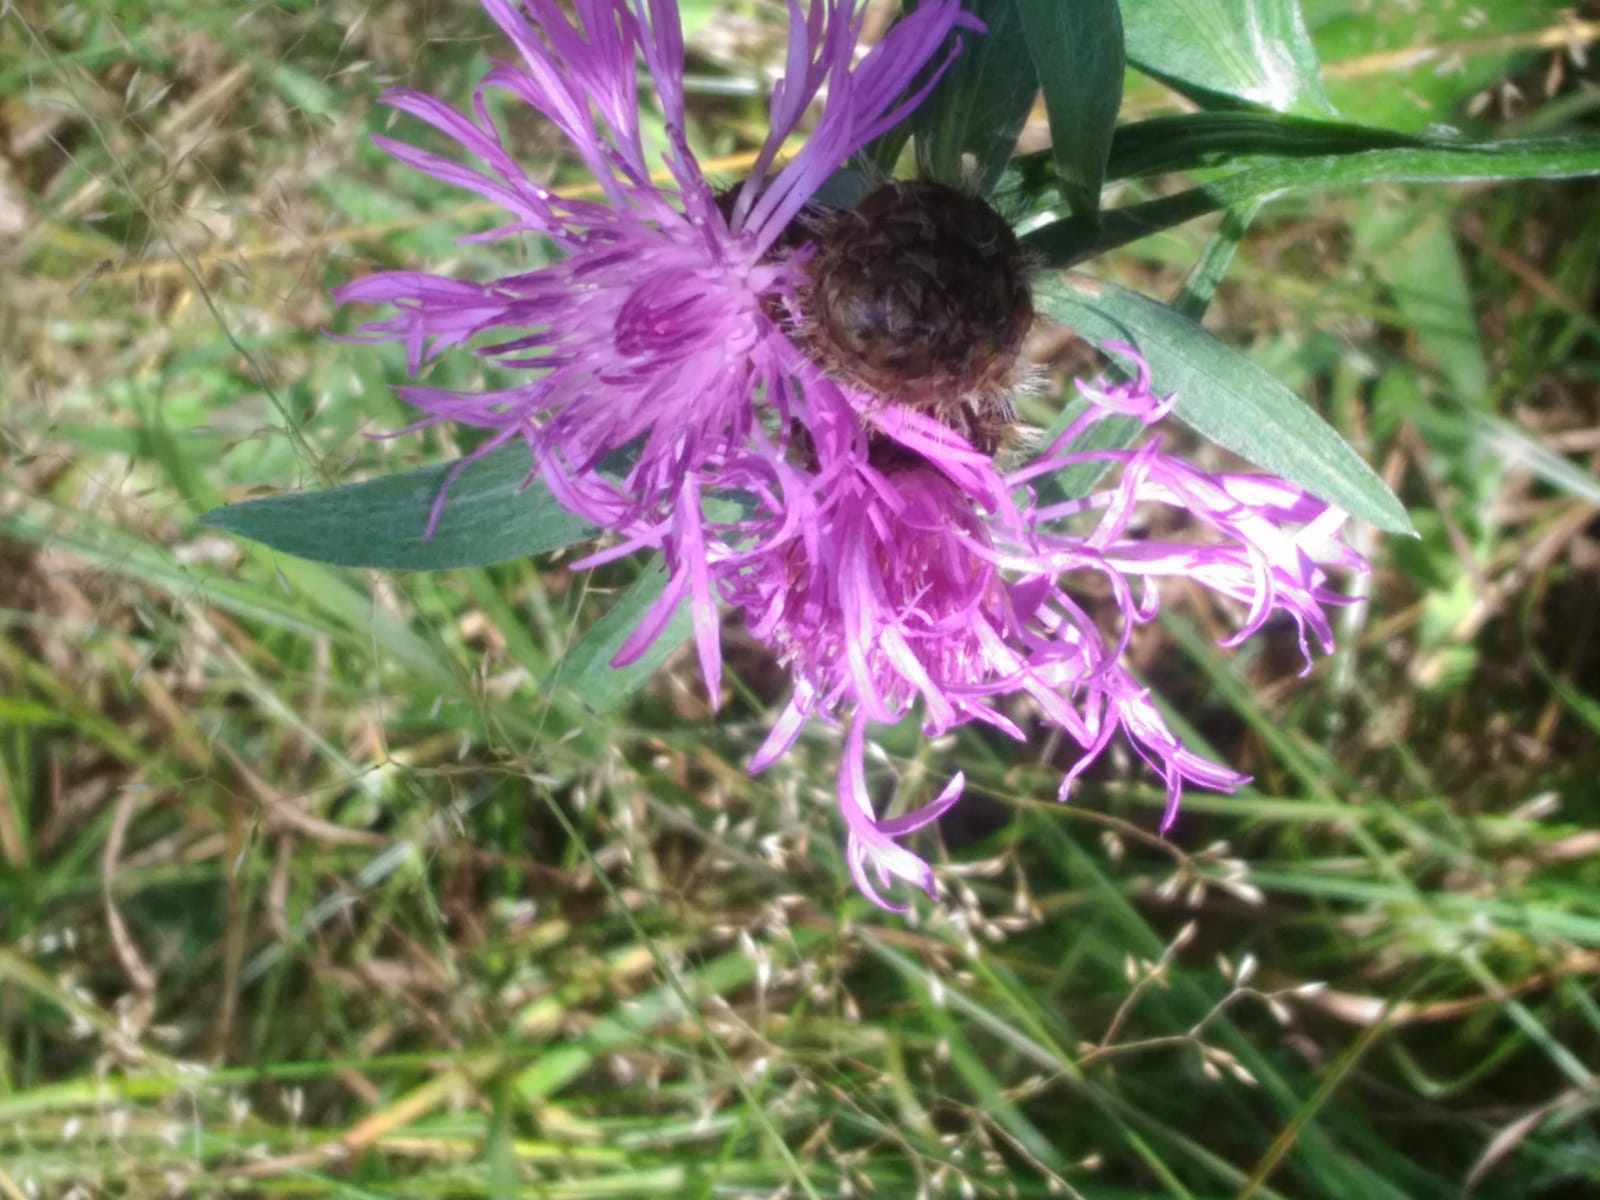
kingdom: Plantae
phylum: Tracheophyta
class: Magnoliopsida
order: Asterales
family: Asteraceae
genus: Centaurea
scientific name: Centaurea phrygia
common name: Wig knapweed
